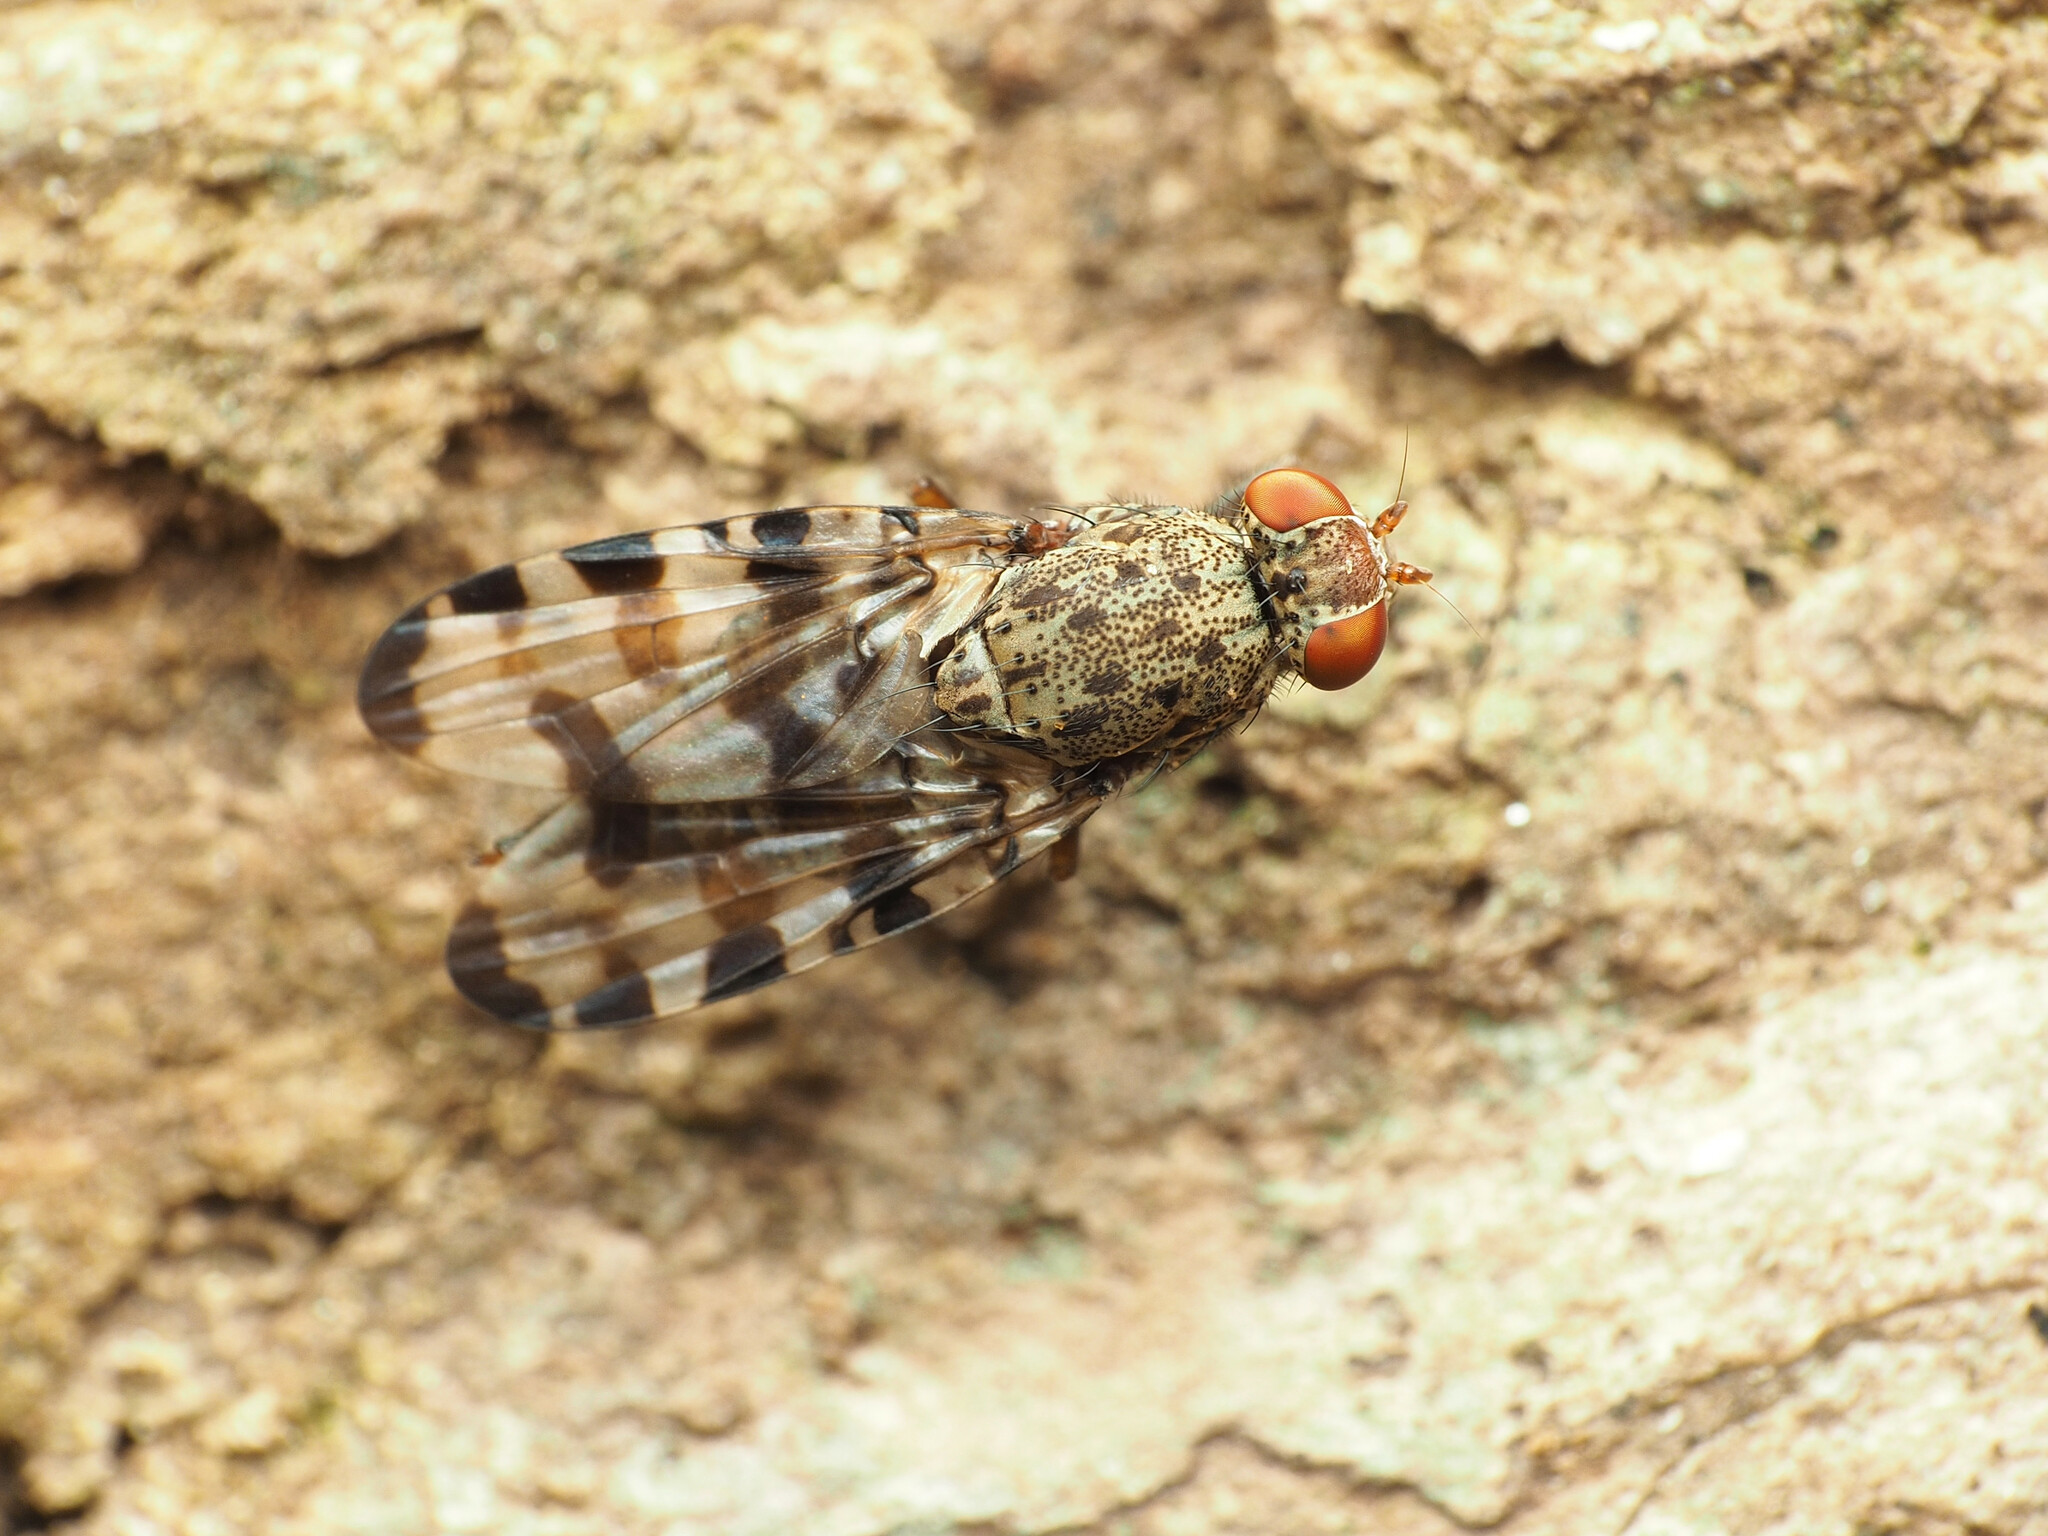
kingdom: Animalia
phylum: Arthropoda
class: Insecta
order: Diptera
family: Ulidiidae
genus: Pseudotephritis
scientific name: Pseudotephritis approximata
